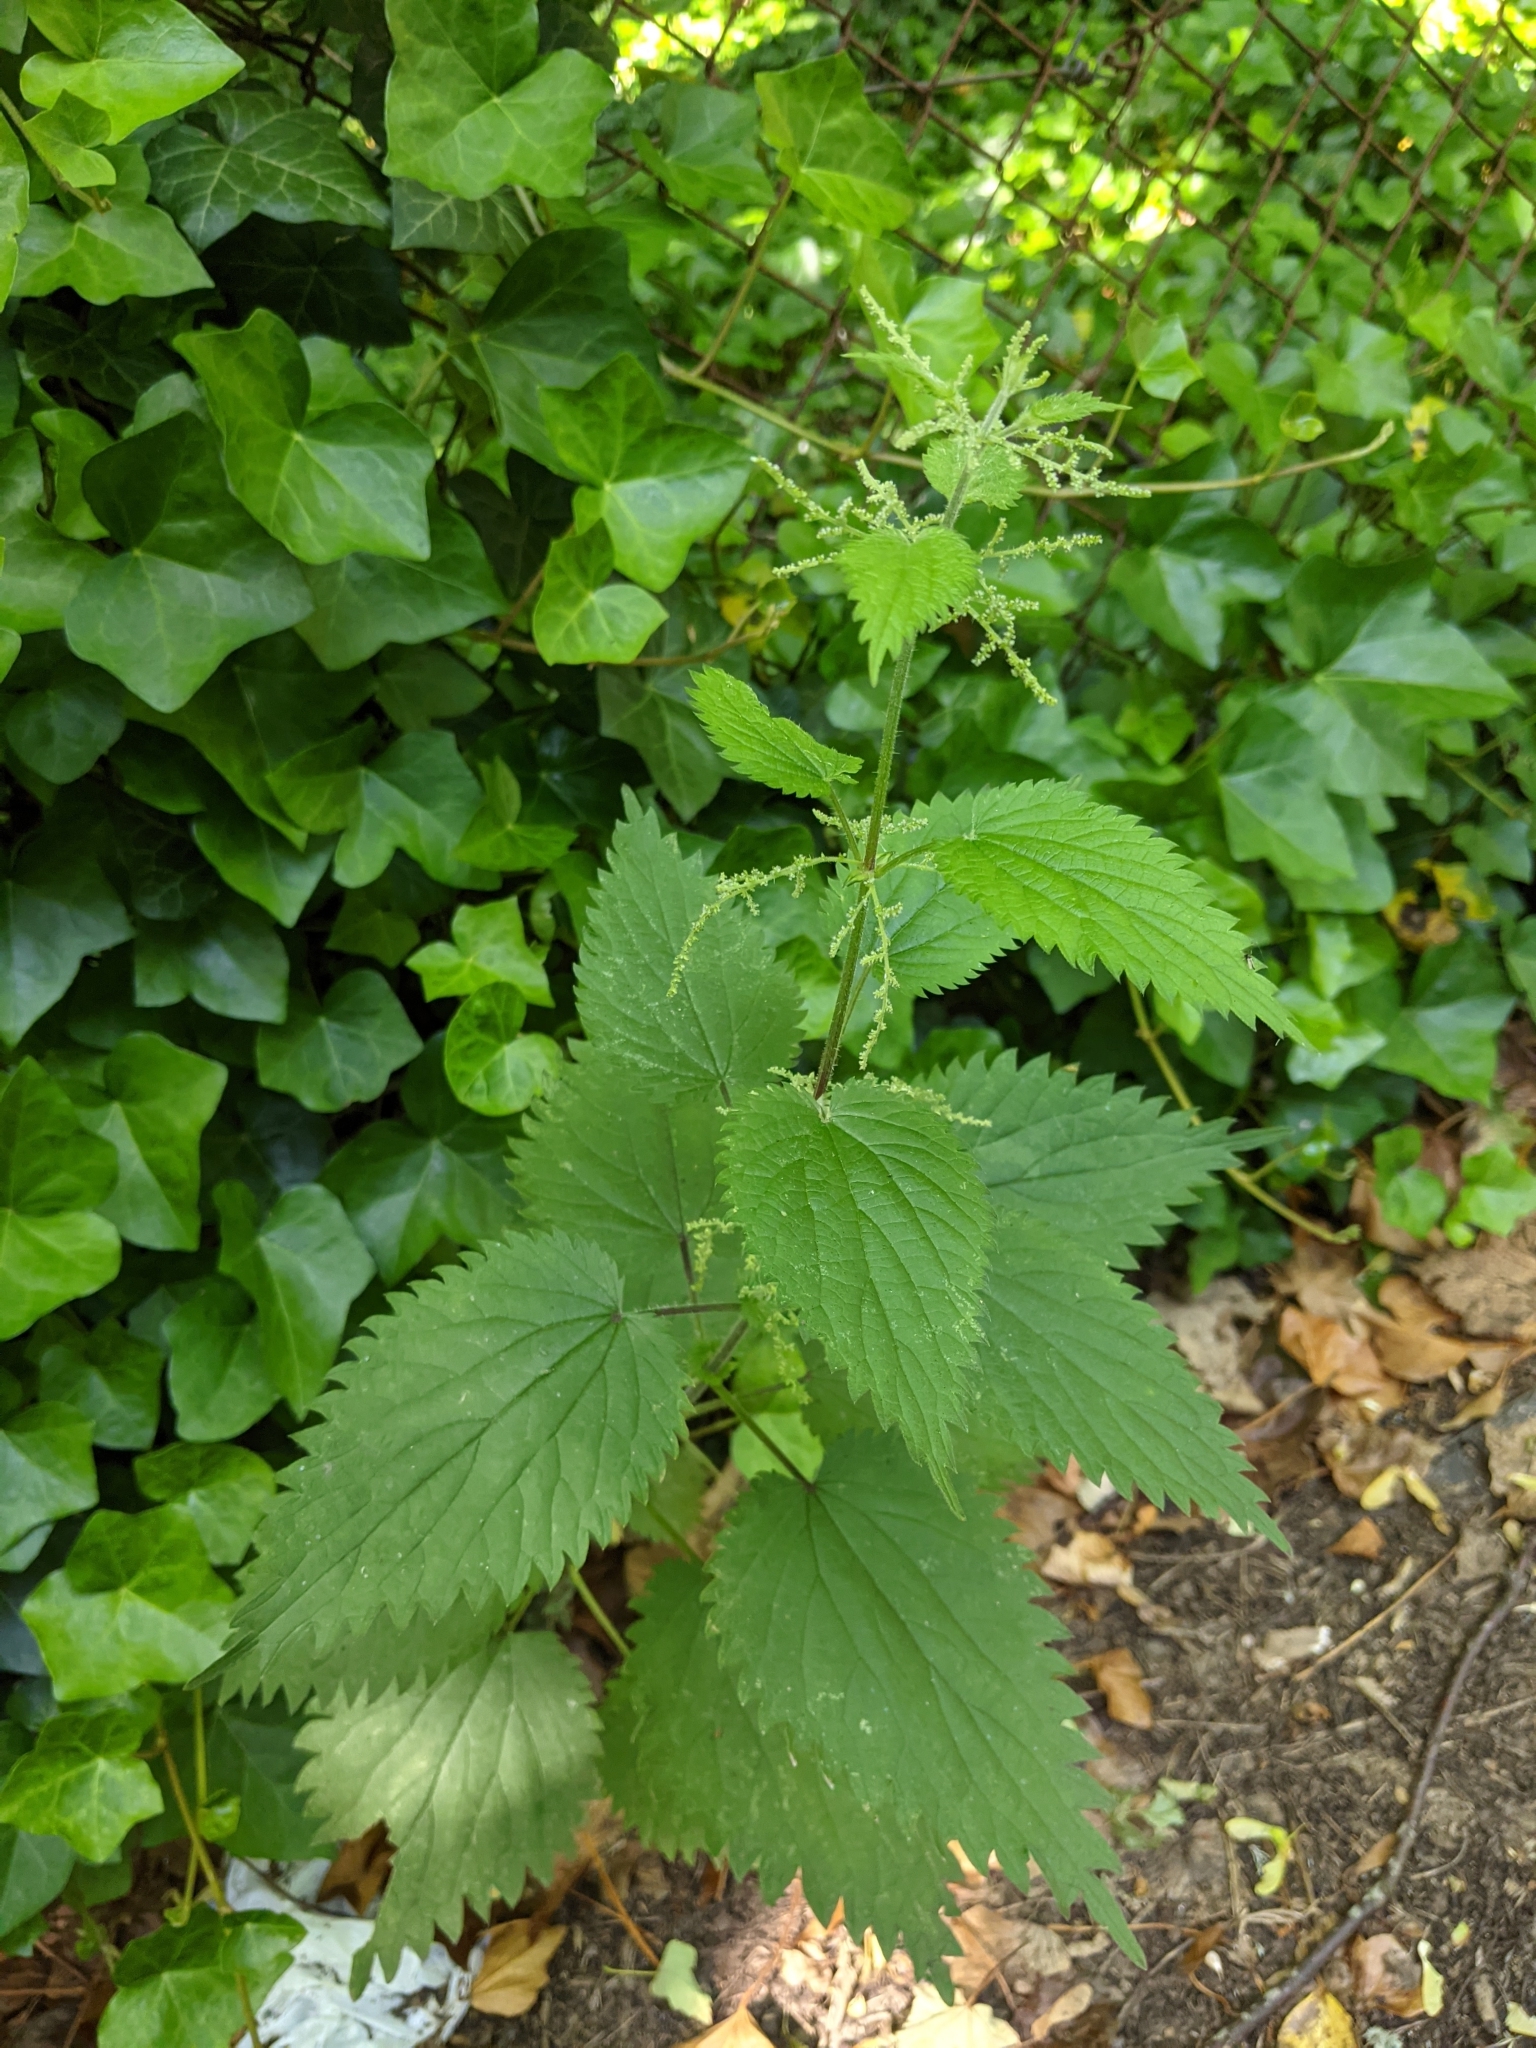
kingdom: Plantae
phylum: Tracheophyta
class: Magnoliopsida
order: Rosales
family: Urticaceae
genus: Urtica
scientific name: Urtica dioica
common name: Common nettle
